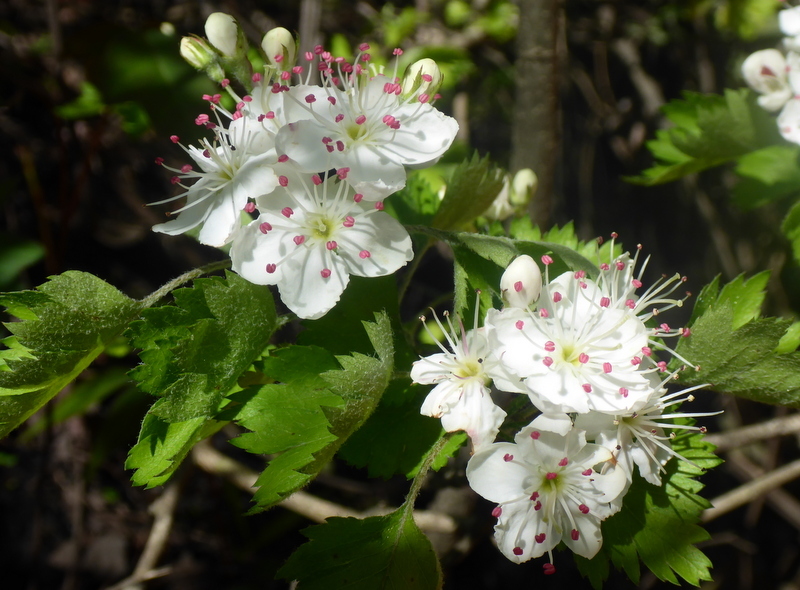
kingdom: Plantae
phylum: Tracheophyta
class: Magnoliopsida
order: Rosales
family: Rosaceae
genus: Crataegus
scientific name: Crataegus marshallii
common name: Parsley-hawthorn
